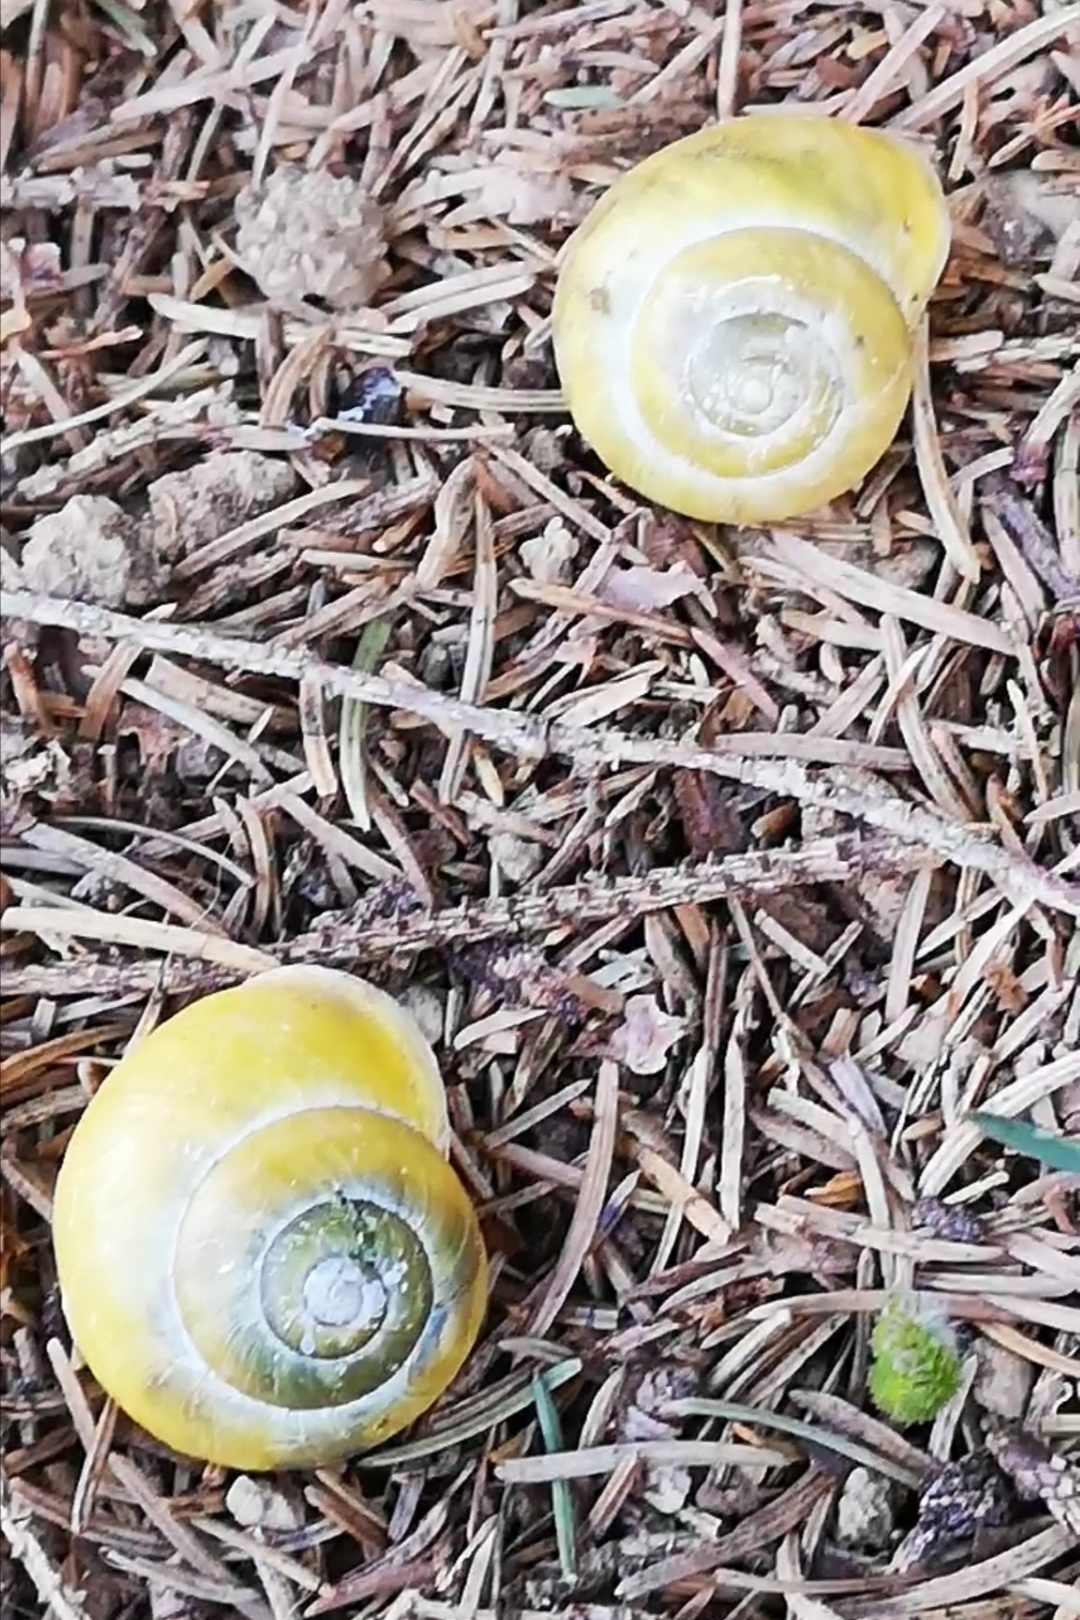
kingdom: Animalia
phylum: Mollusca
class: Gastropoda
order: Stylommatophora
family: Helicidae
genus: Cepaea
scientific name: Cepaea hortensis
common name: White-lip gardensnail
